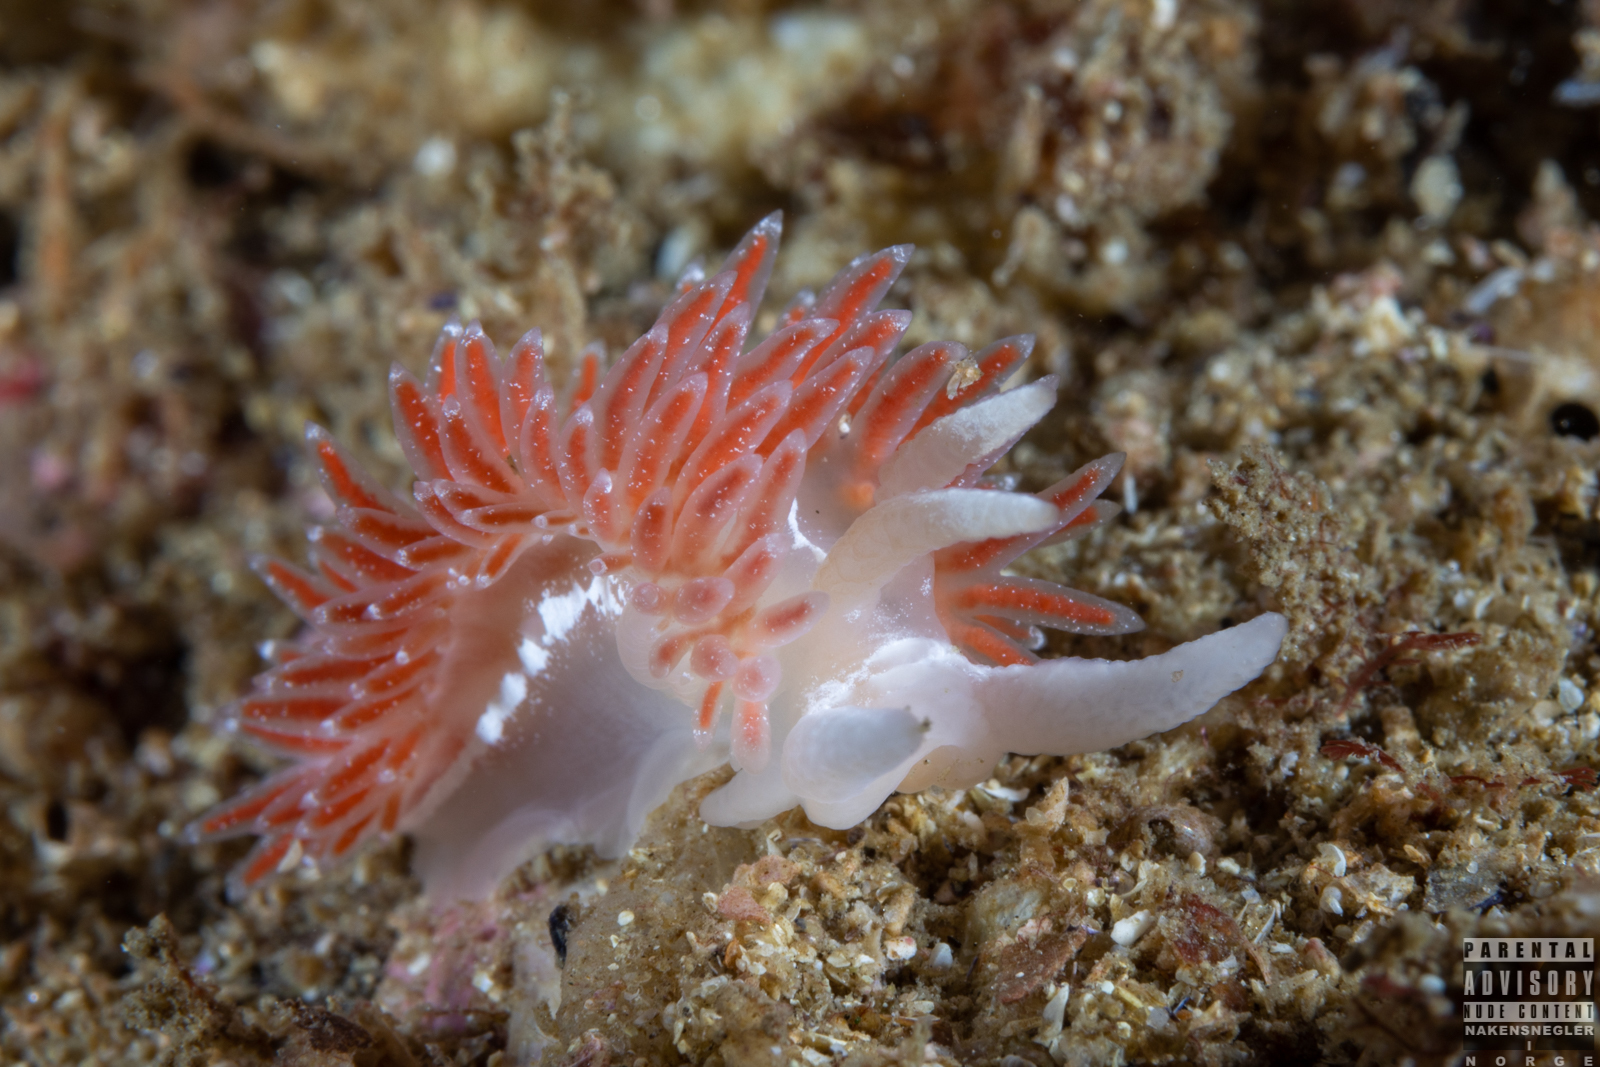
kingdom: Animalia
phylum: Mollusca
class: Gastropoda
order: Nudibranchia
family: Coryphellidae
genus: Coryphella
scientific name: Coryphella orjani
